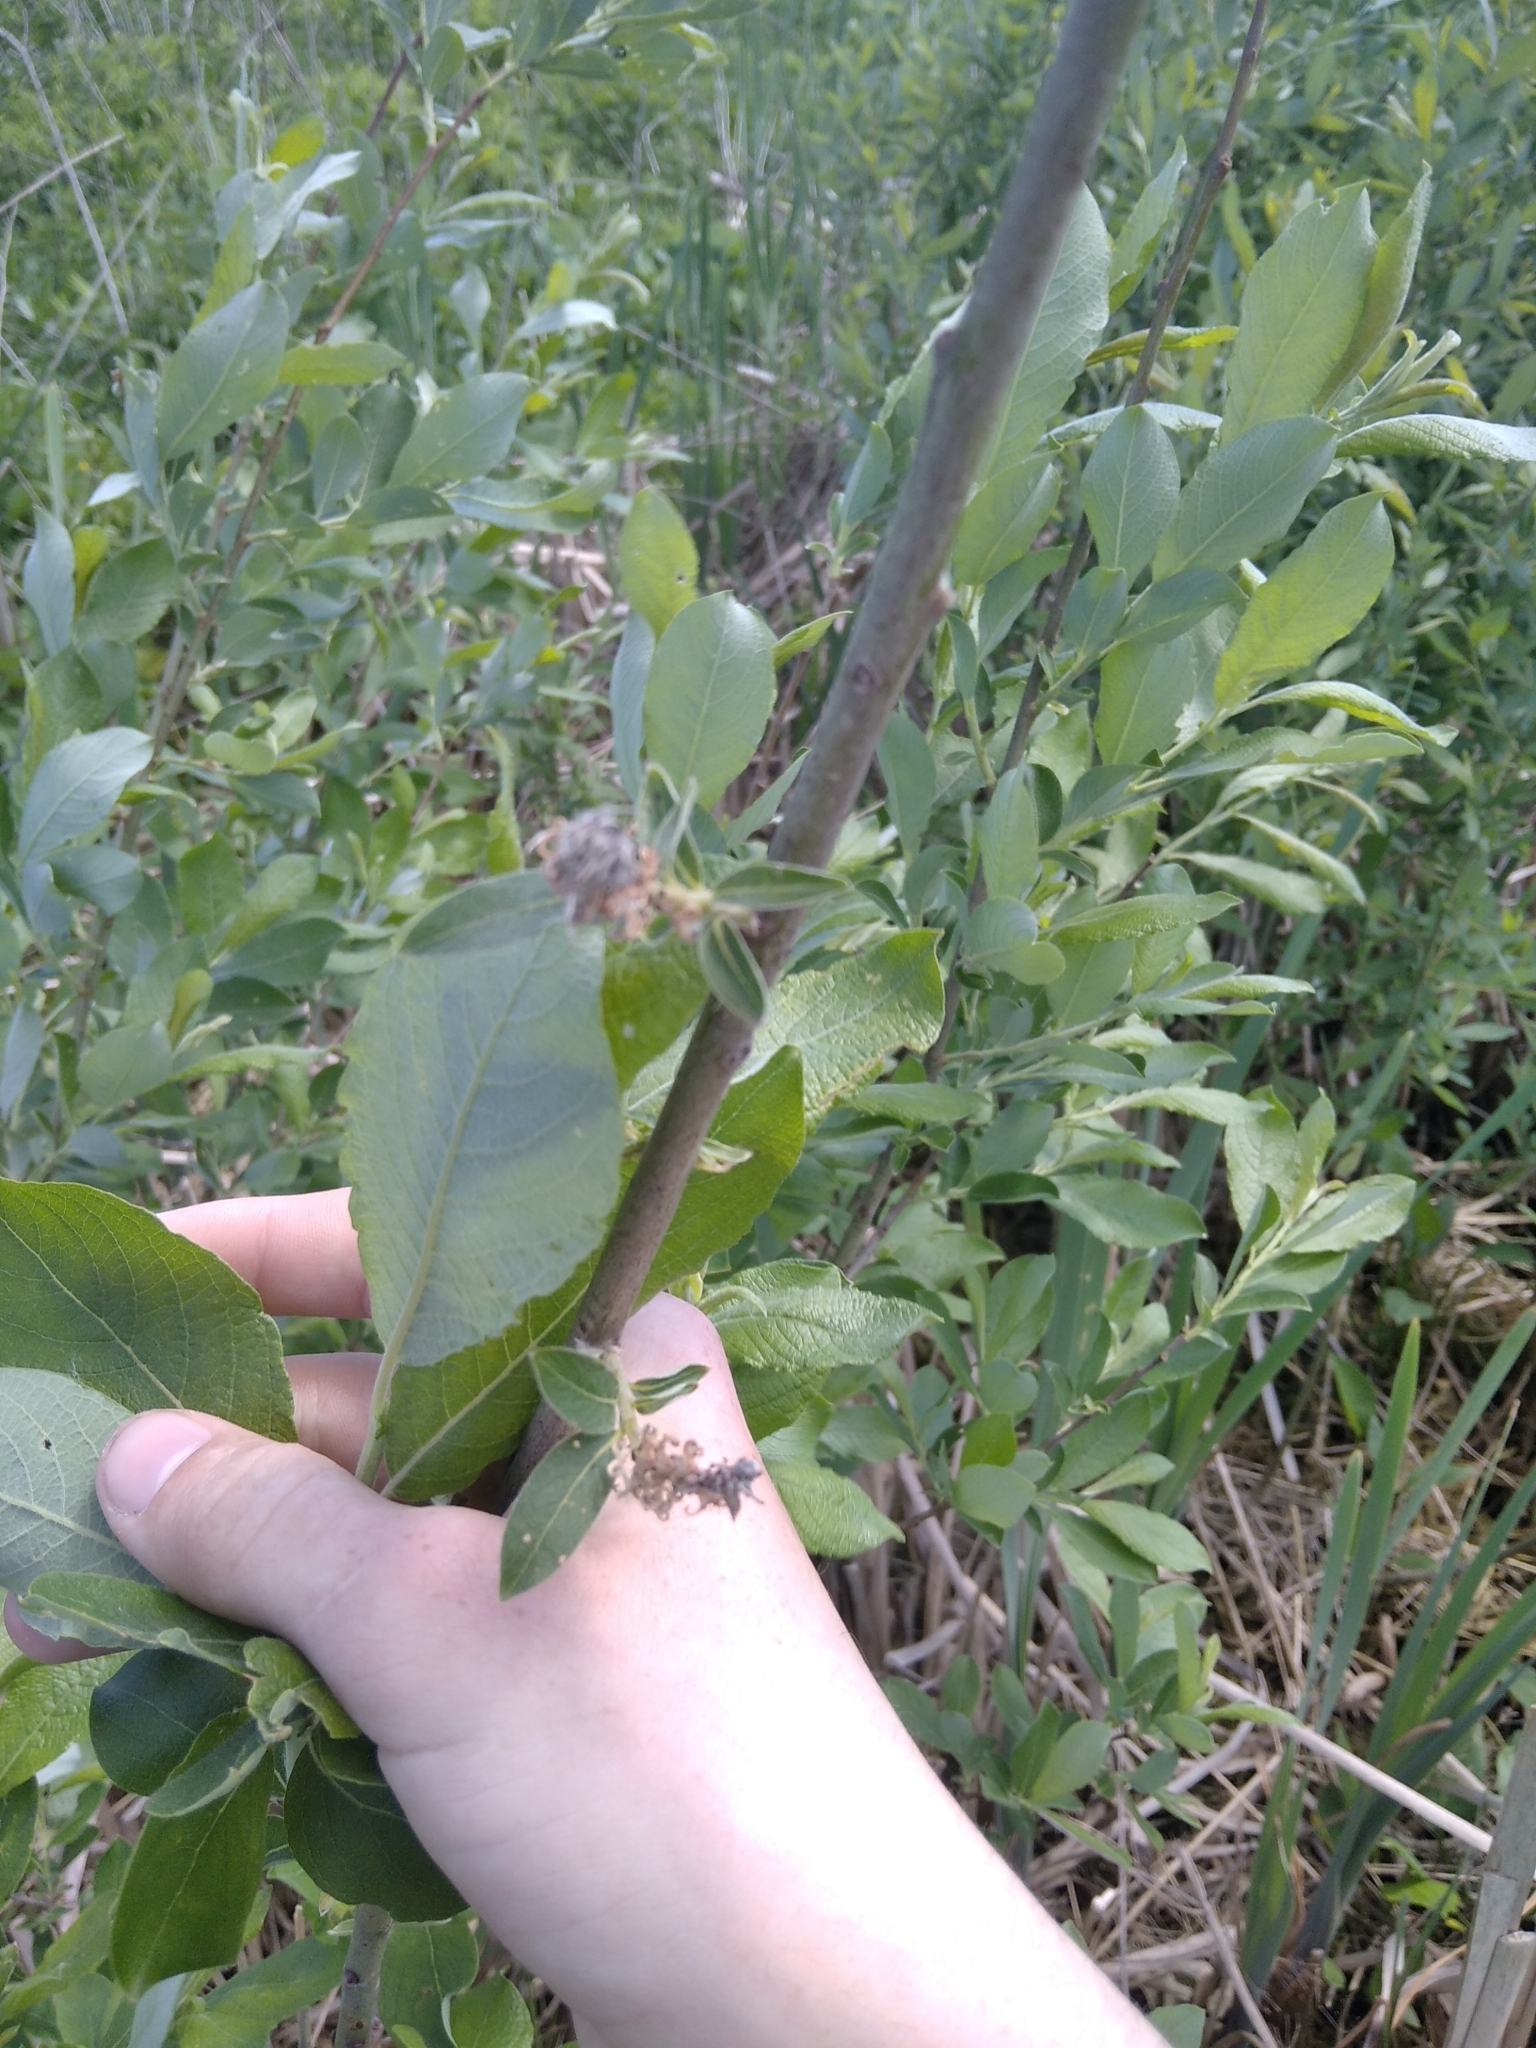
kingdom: Plantae
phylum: Tracheophyta
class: Magnoliopsida
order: Malpighiales
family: Salicaceae
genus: Salix
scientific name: Salix caprea
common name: Goat willow
